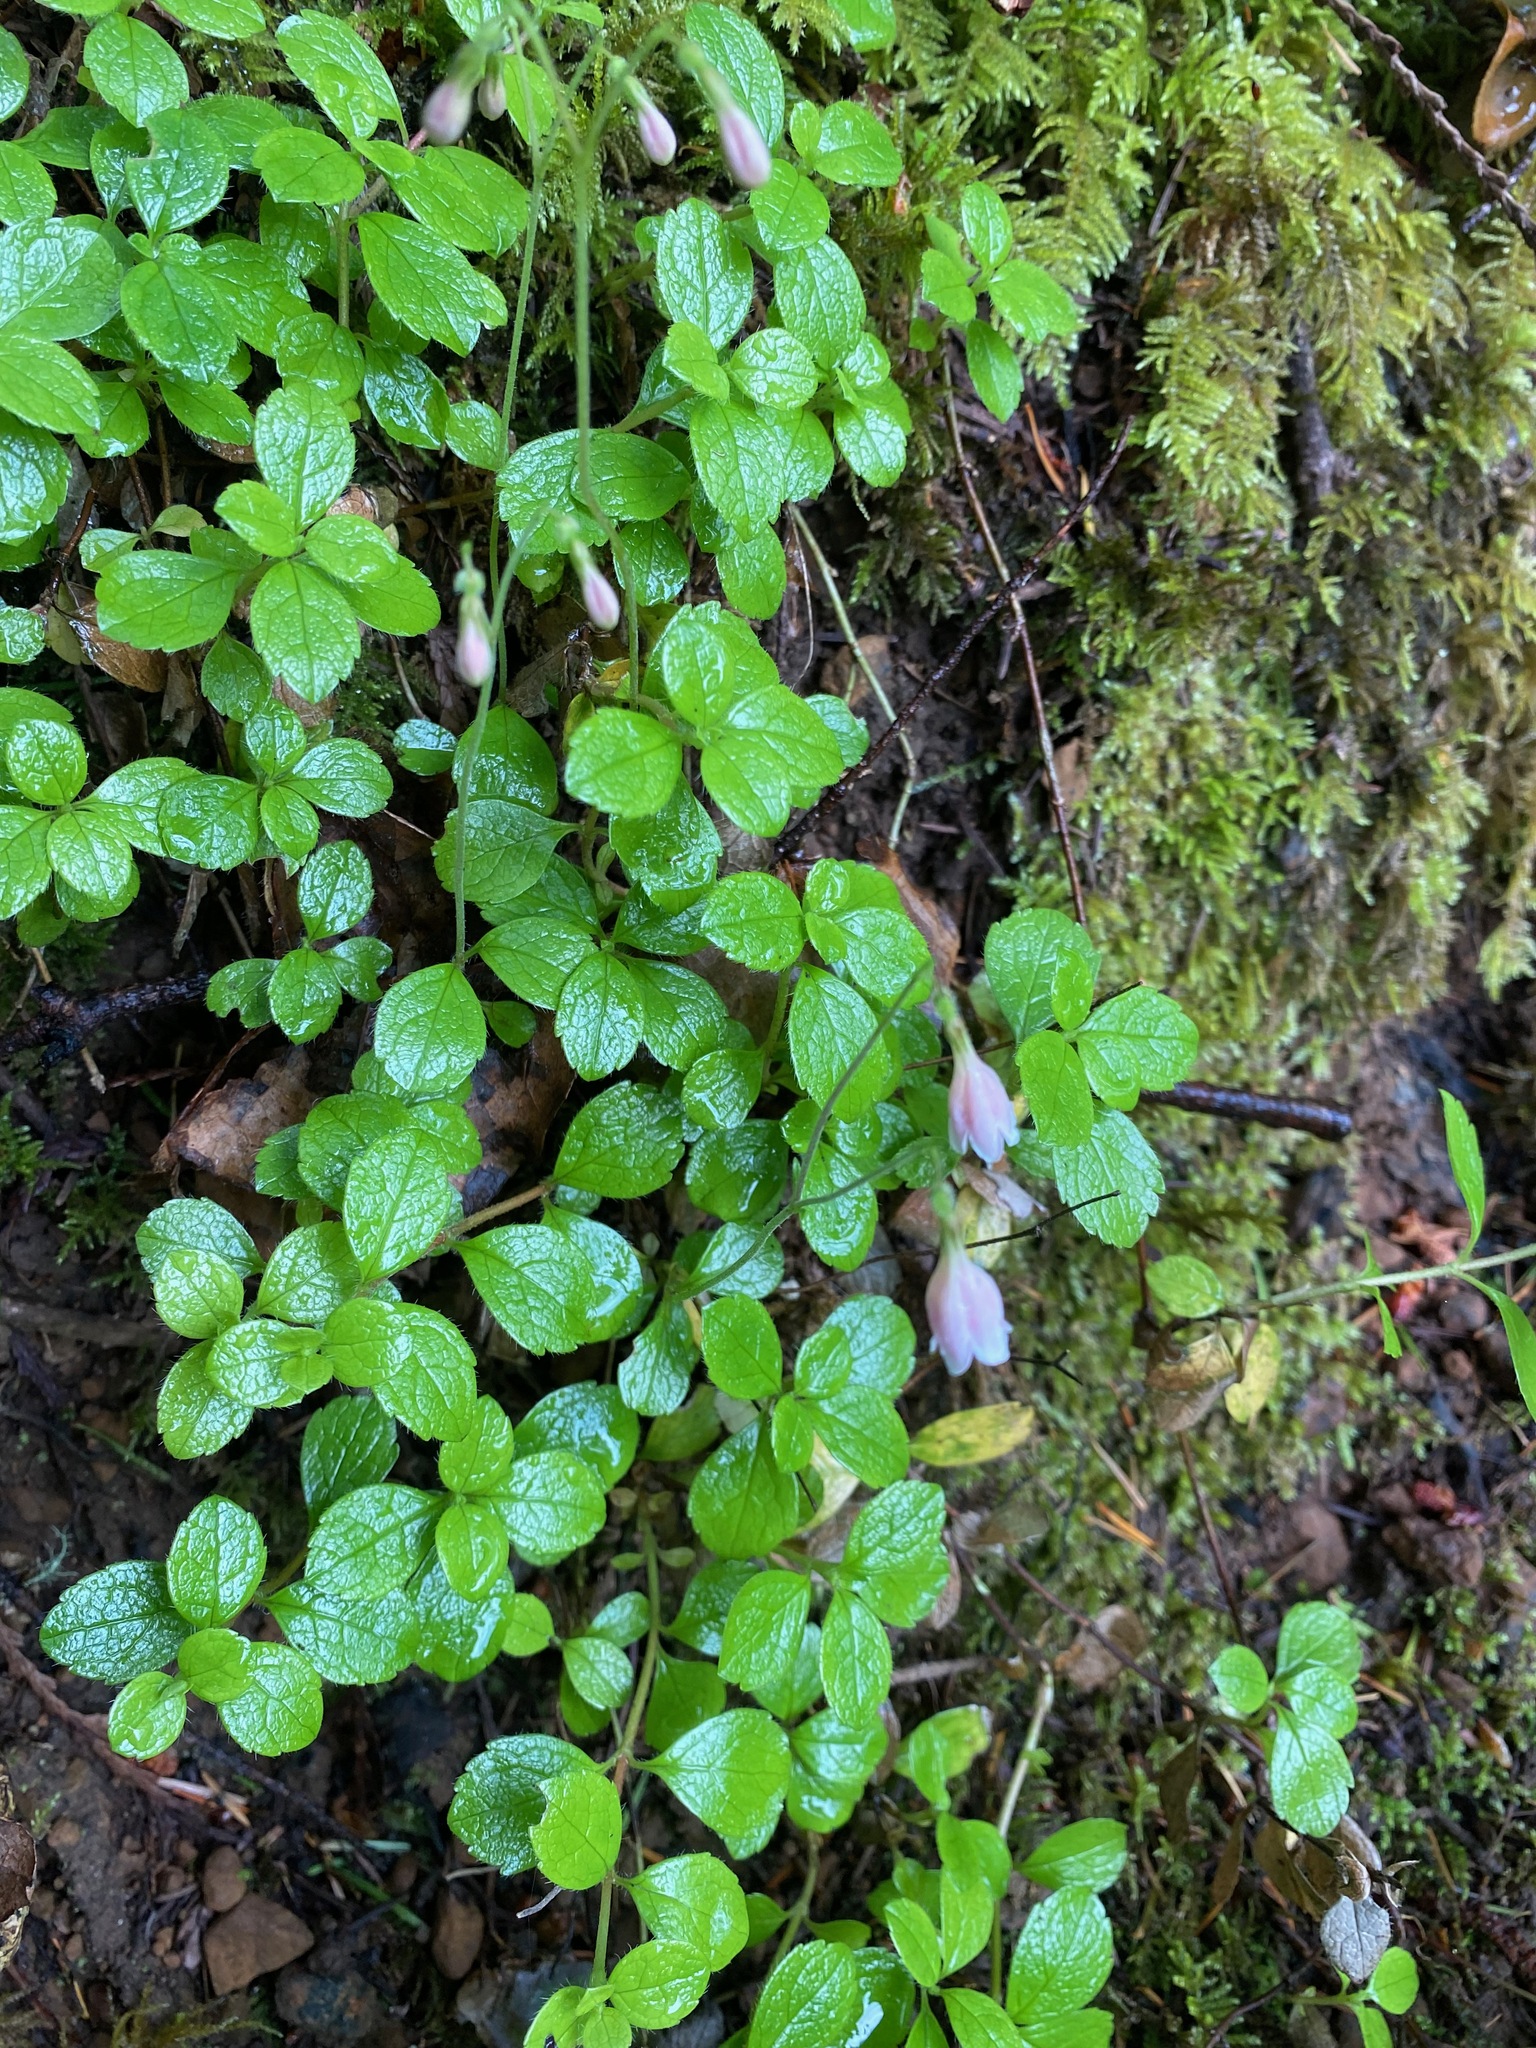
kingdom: Plantae
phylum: Tracheophyta
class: Magnoliopsida
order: Dipsacales
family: Caprifoliaceae
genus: Linnaea
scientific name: Linnaea borealis
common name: Twinflower
